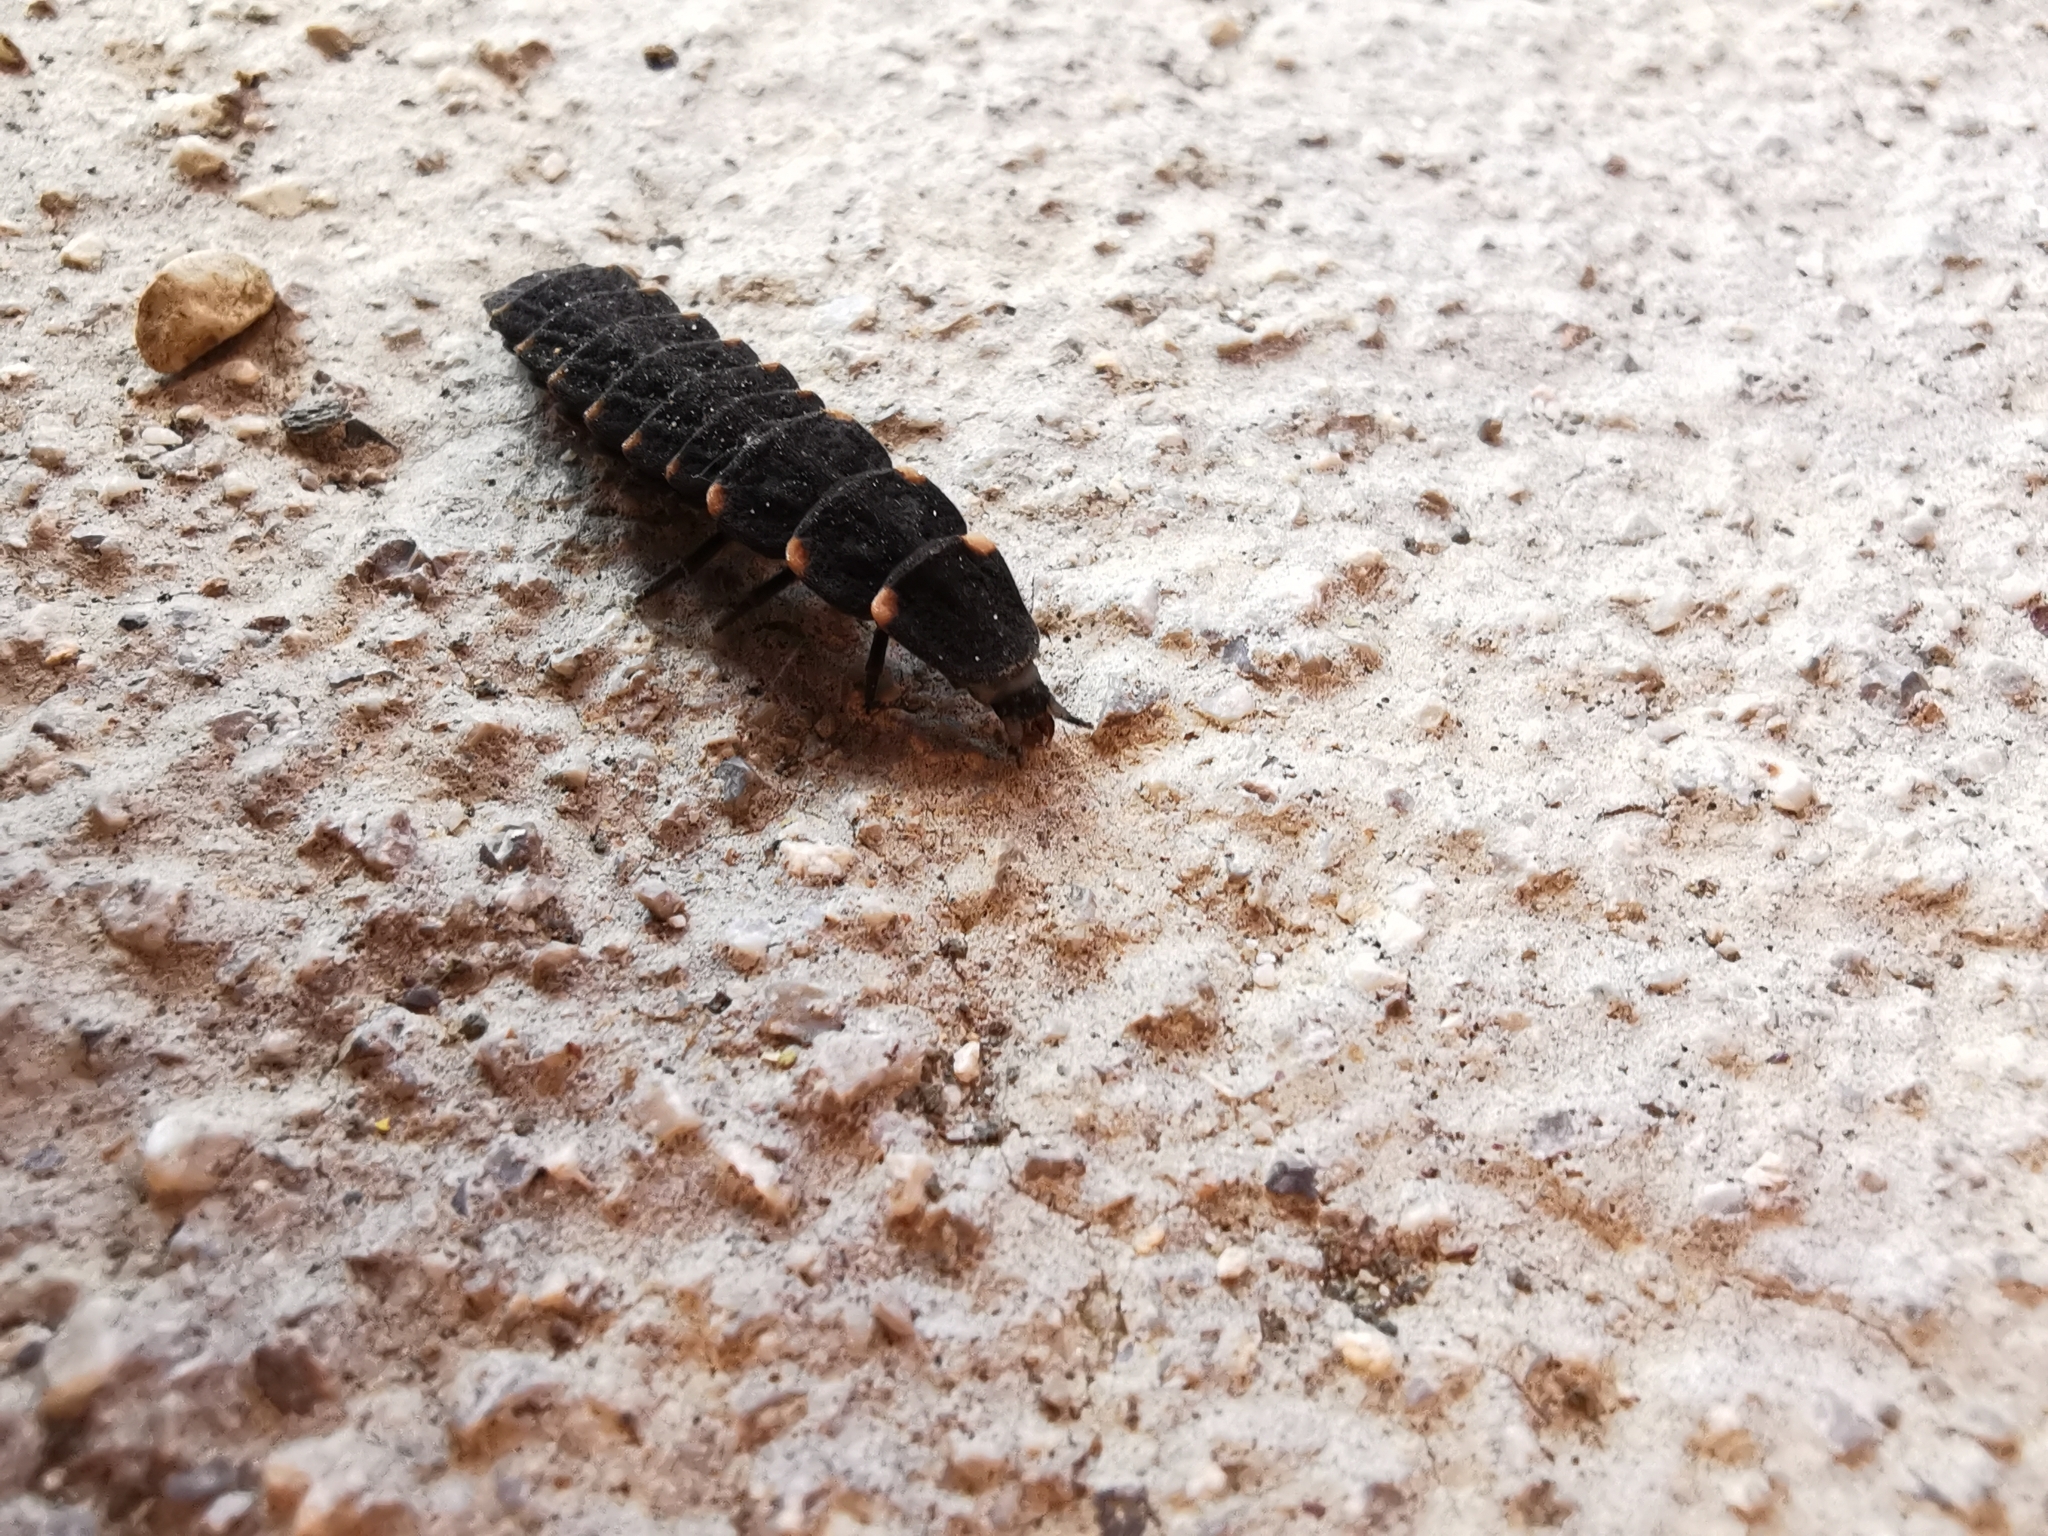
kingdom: Animalia
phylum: Arthropoda
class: Insecta
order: Coleoptera
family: Lampyridae
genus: Lampyris
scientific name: Lampyris noctiluca
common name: Glow-worm
